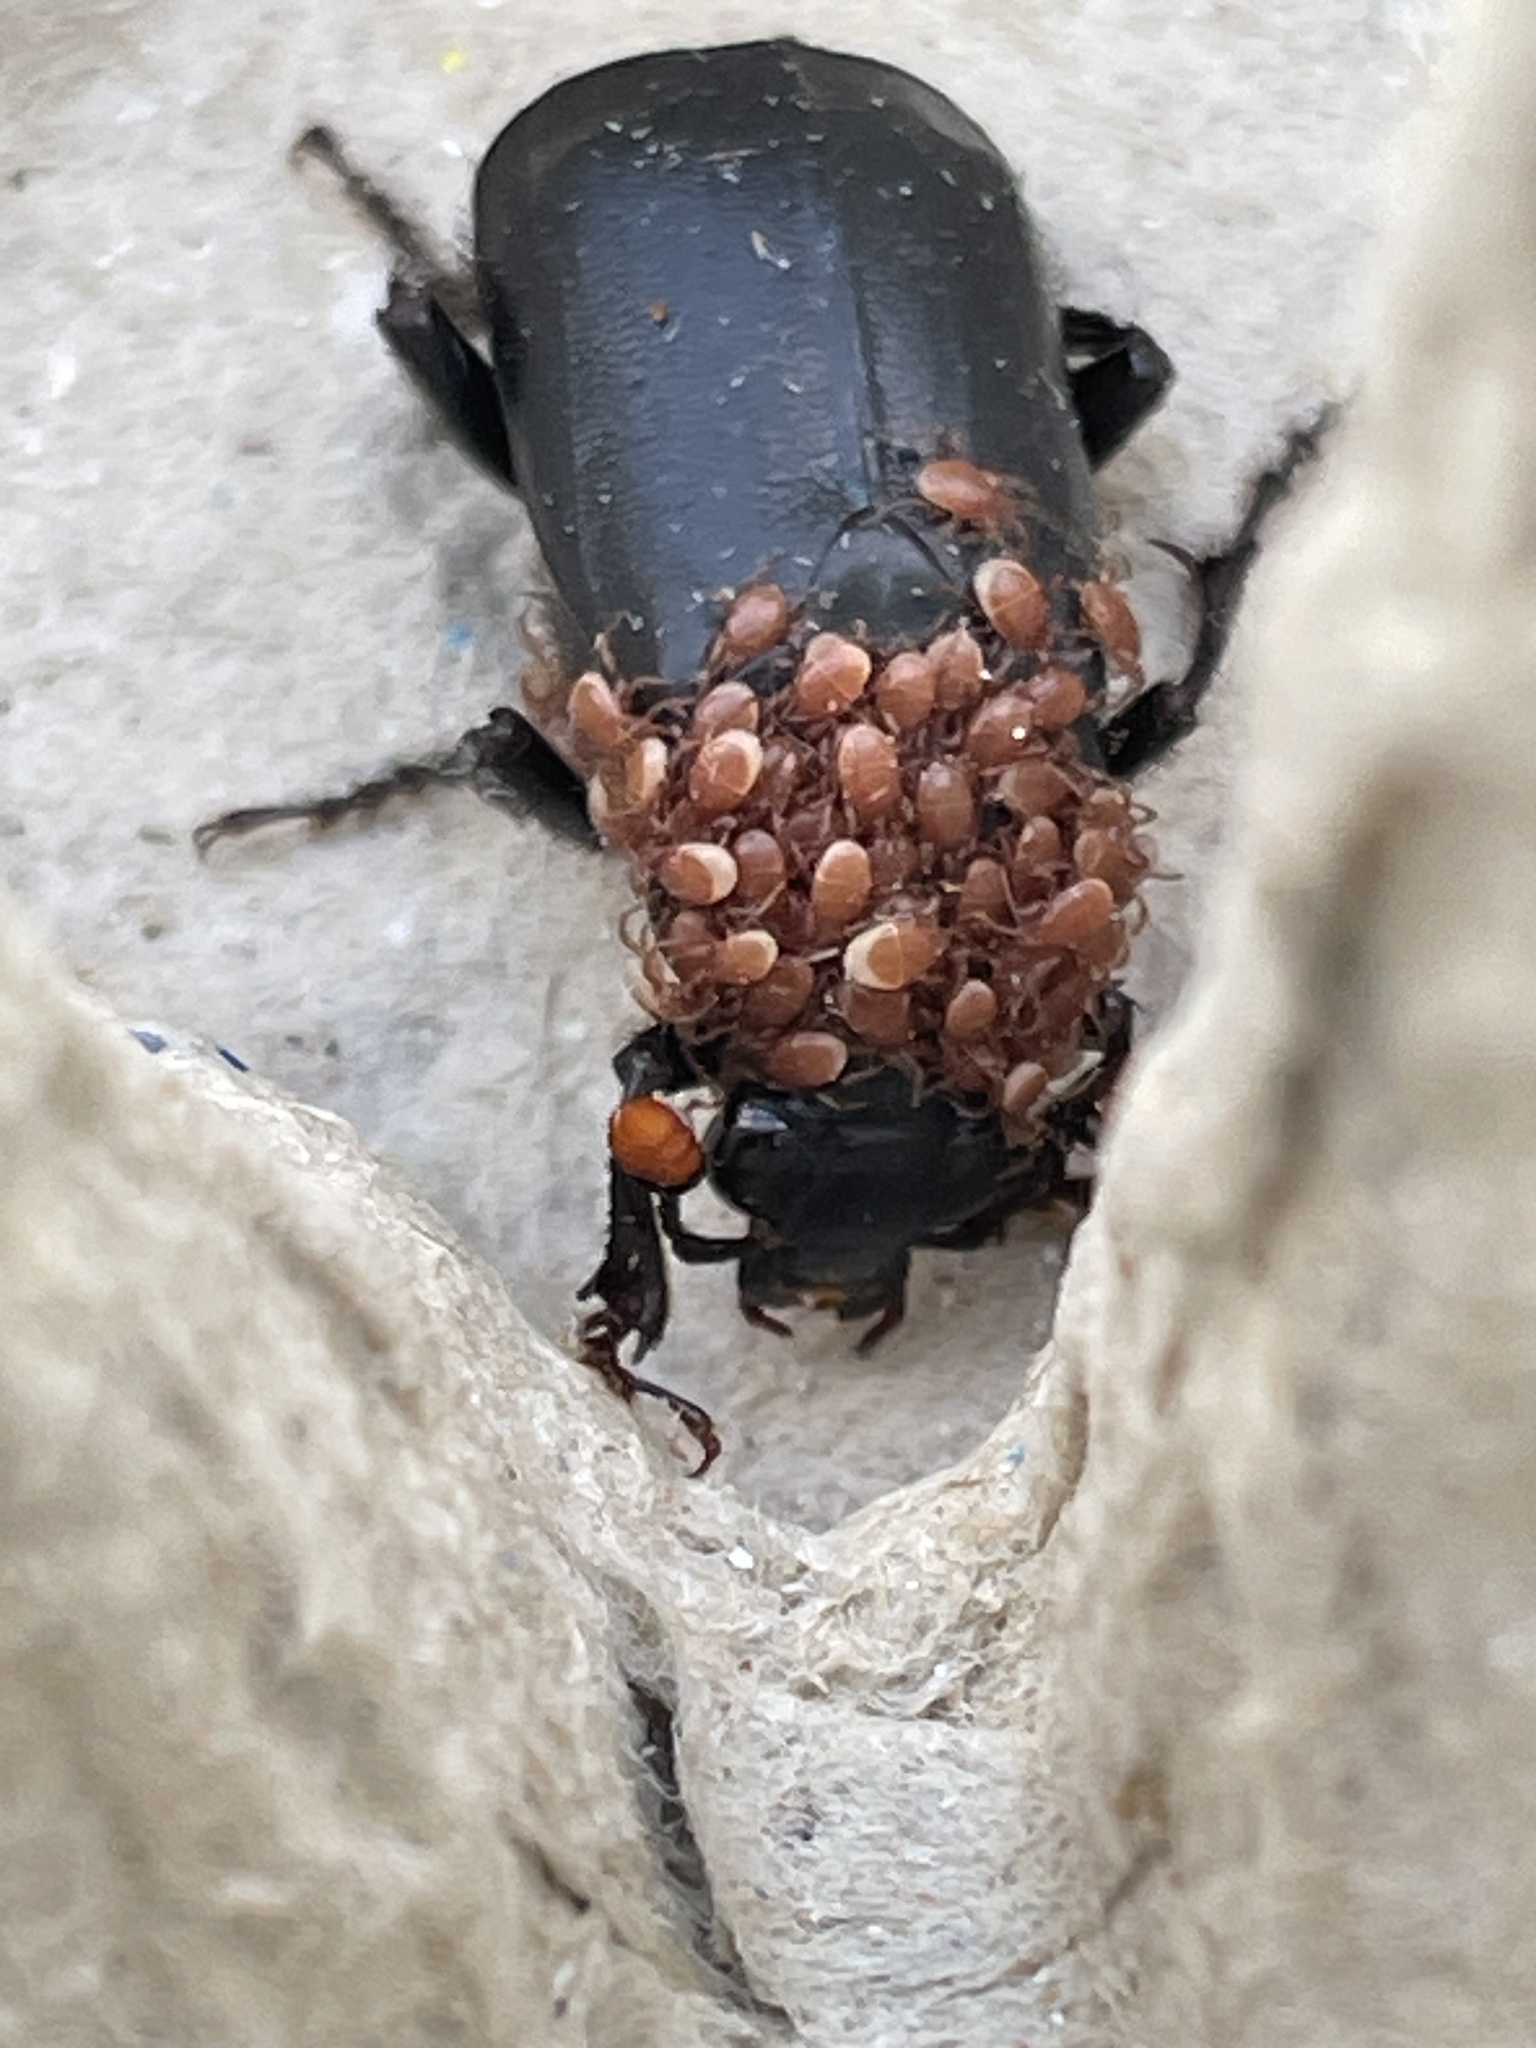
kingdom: Animalia
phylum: Arthropoda
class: Insecta
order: Coleoptera
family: Staphylinidae
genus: Nicrophorus
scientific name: Nicrophorus humator
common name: Black sexton beetle
